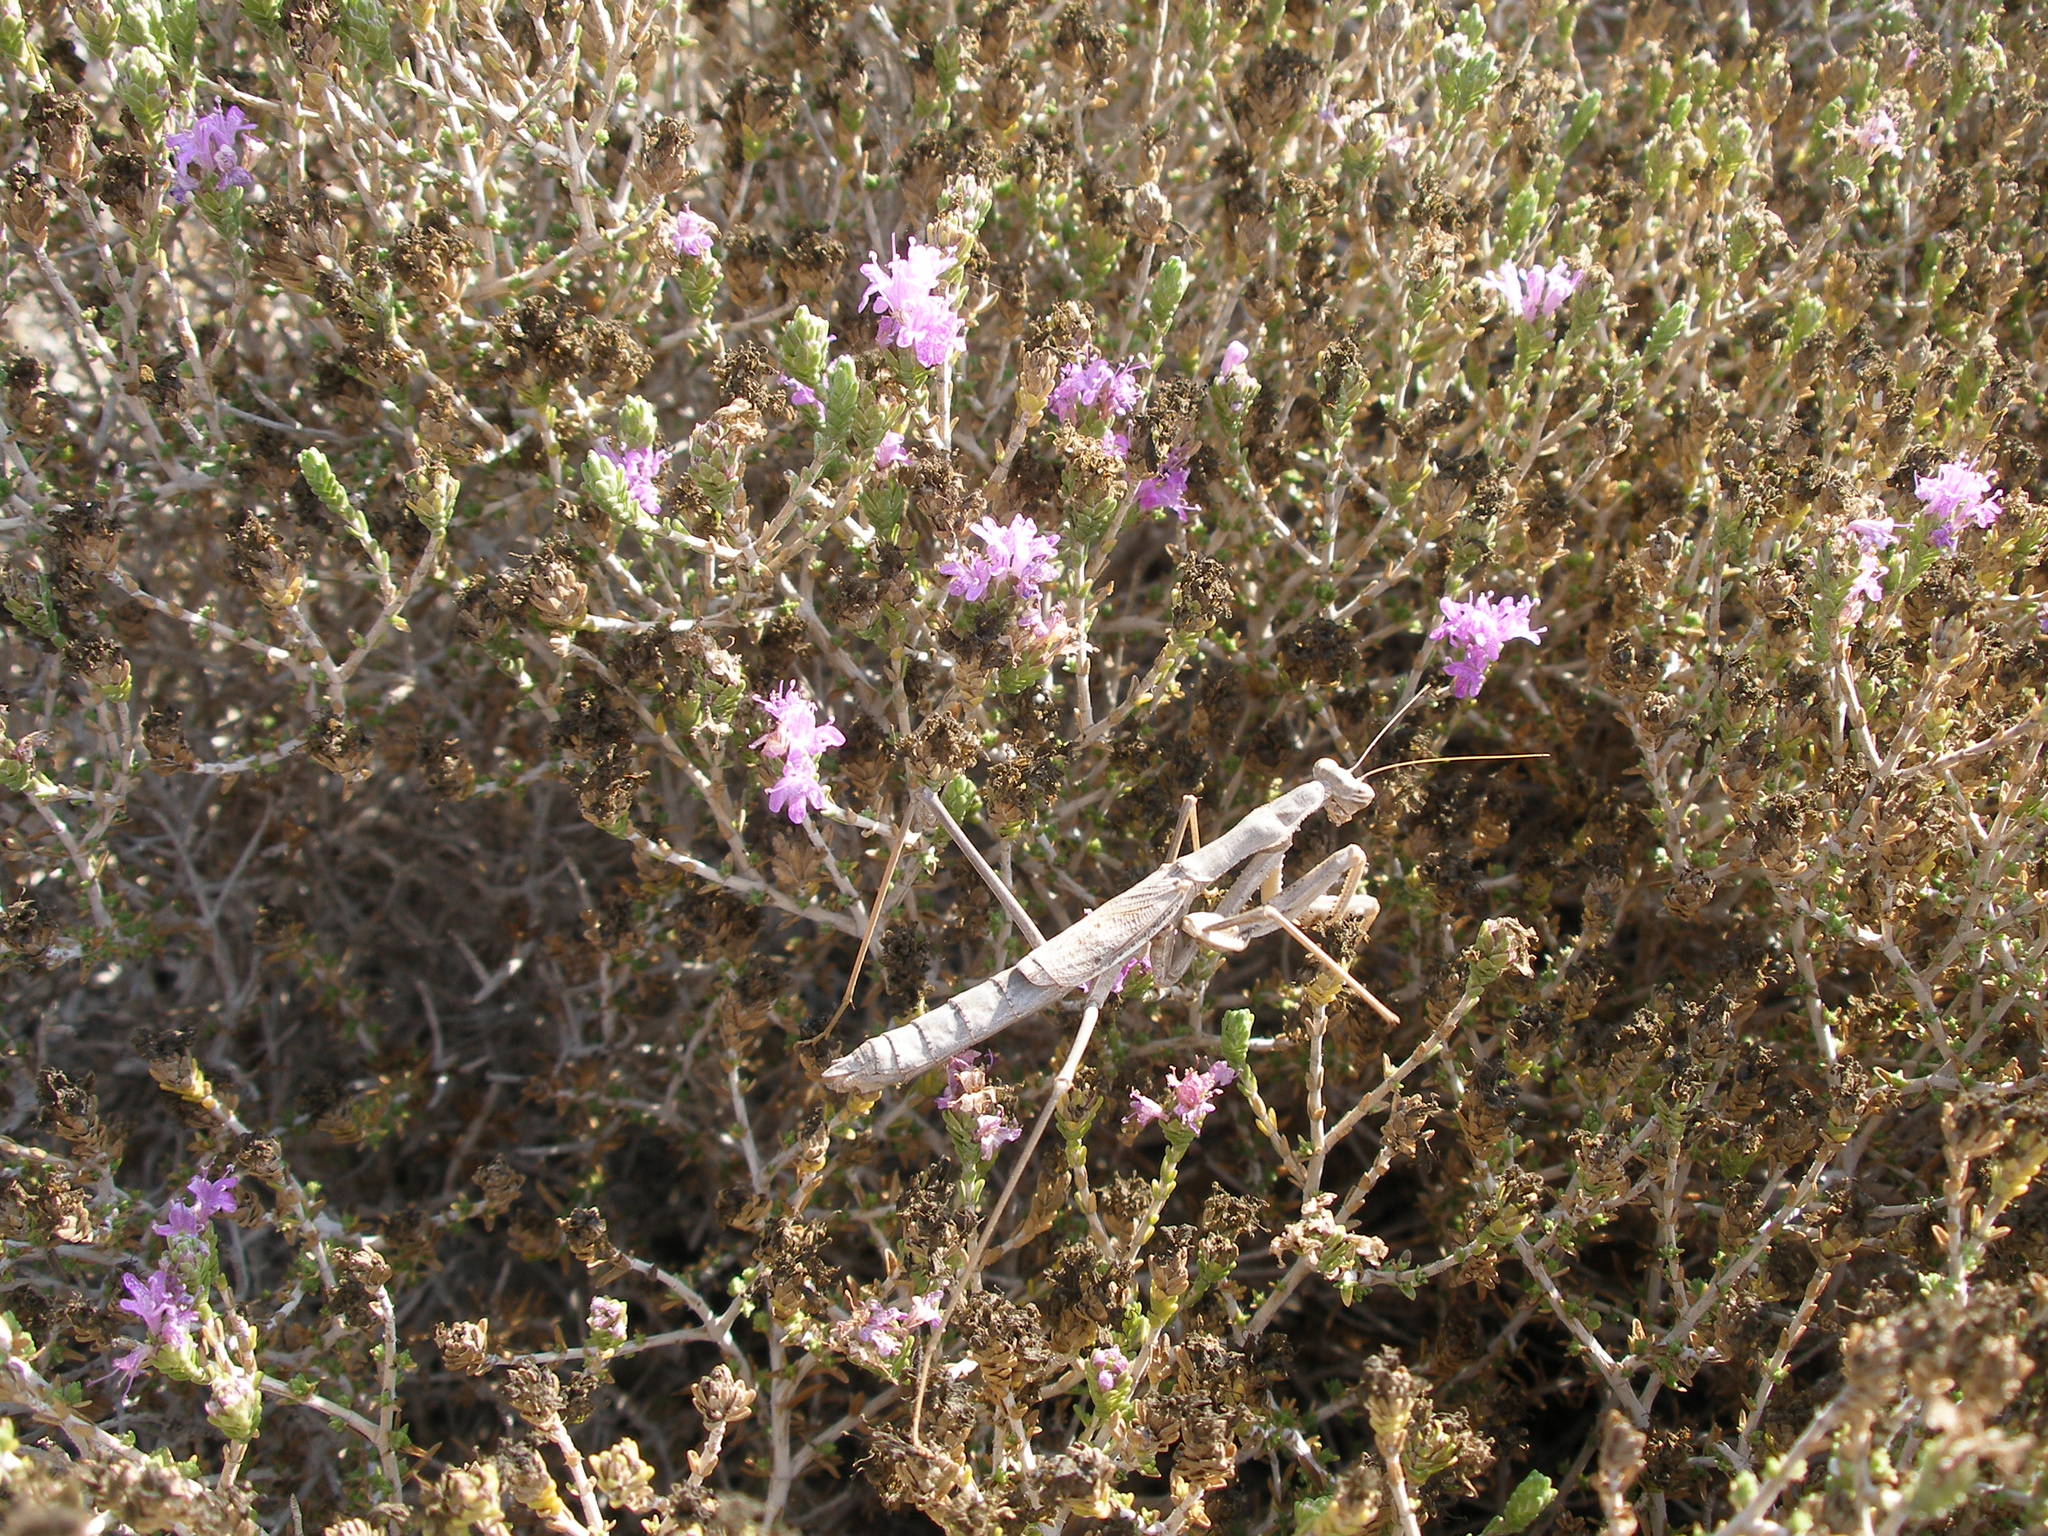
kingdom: Animalia
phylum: Arthropoda
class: Insecta
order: Mantodea
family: Rivetinidae
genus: Rivetina
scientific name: Rivetina balcanica
